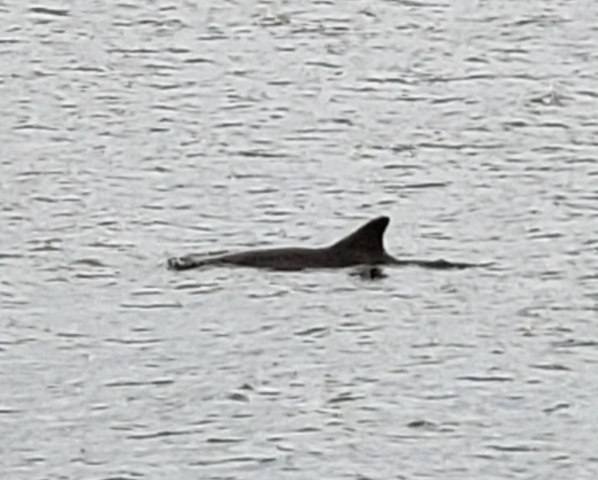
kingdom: Animalia
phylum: Chordata
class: Mammalia
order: Cetacea
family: Delphinidae
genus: Tursiops
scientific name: Tursiops truncatus
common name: Bottlenose dolphin
